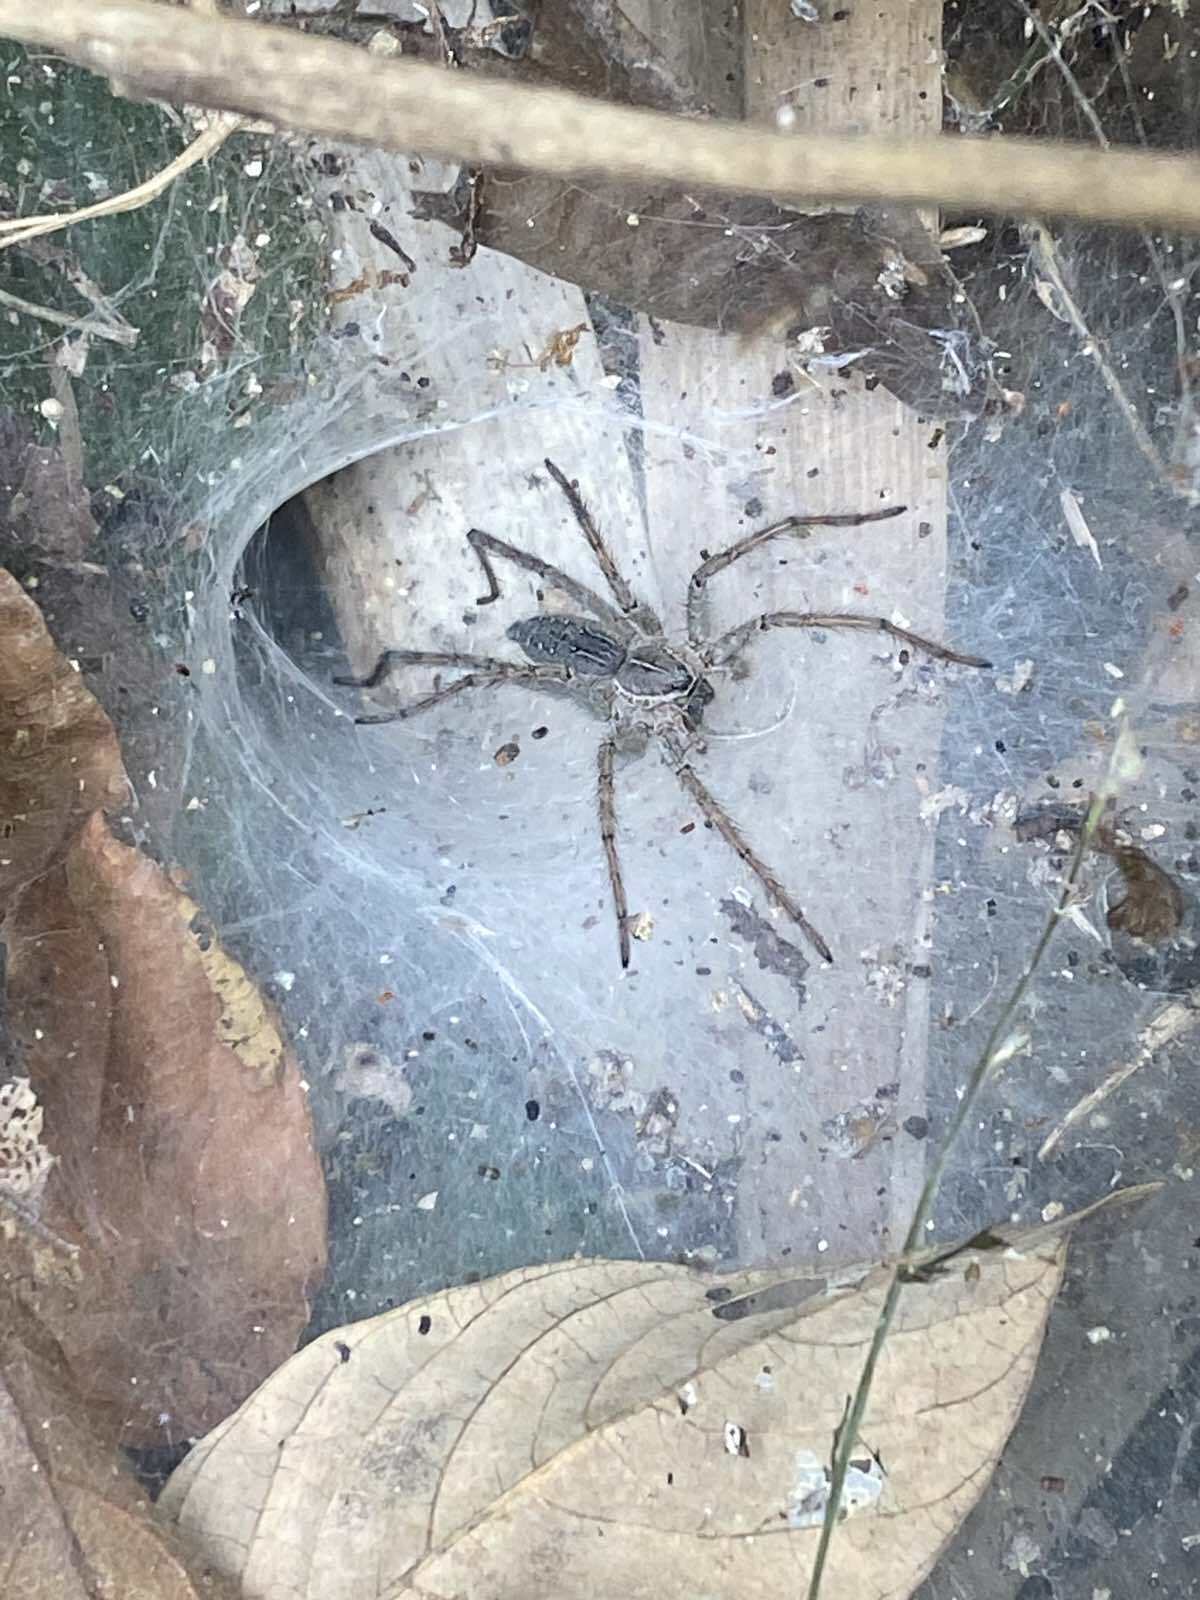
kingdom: Animalia
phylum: Arthropoda
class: Arachnida
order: Araneae
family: Lycosidae
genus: Hippasa
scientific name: Hippasa holmerae
